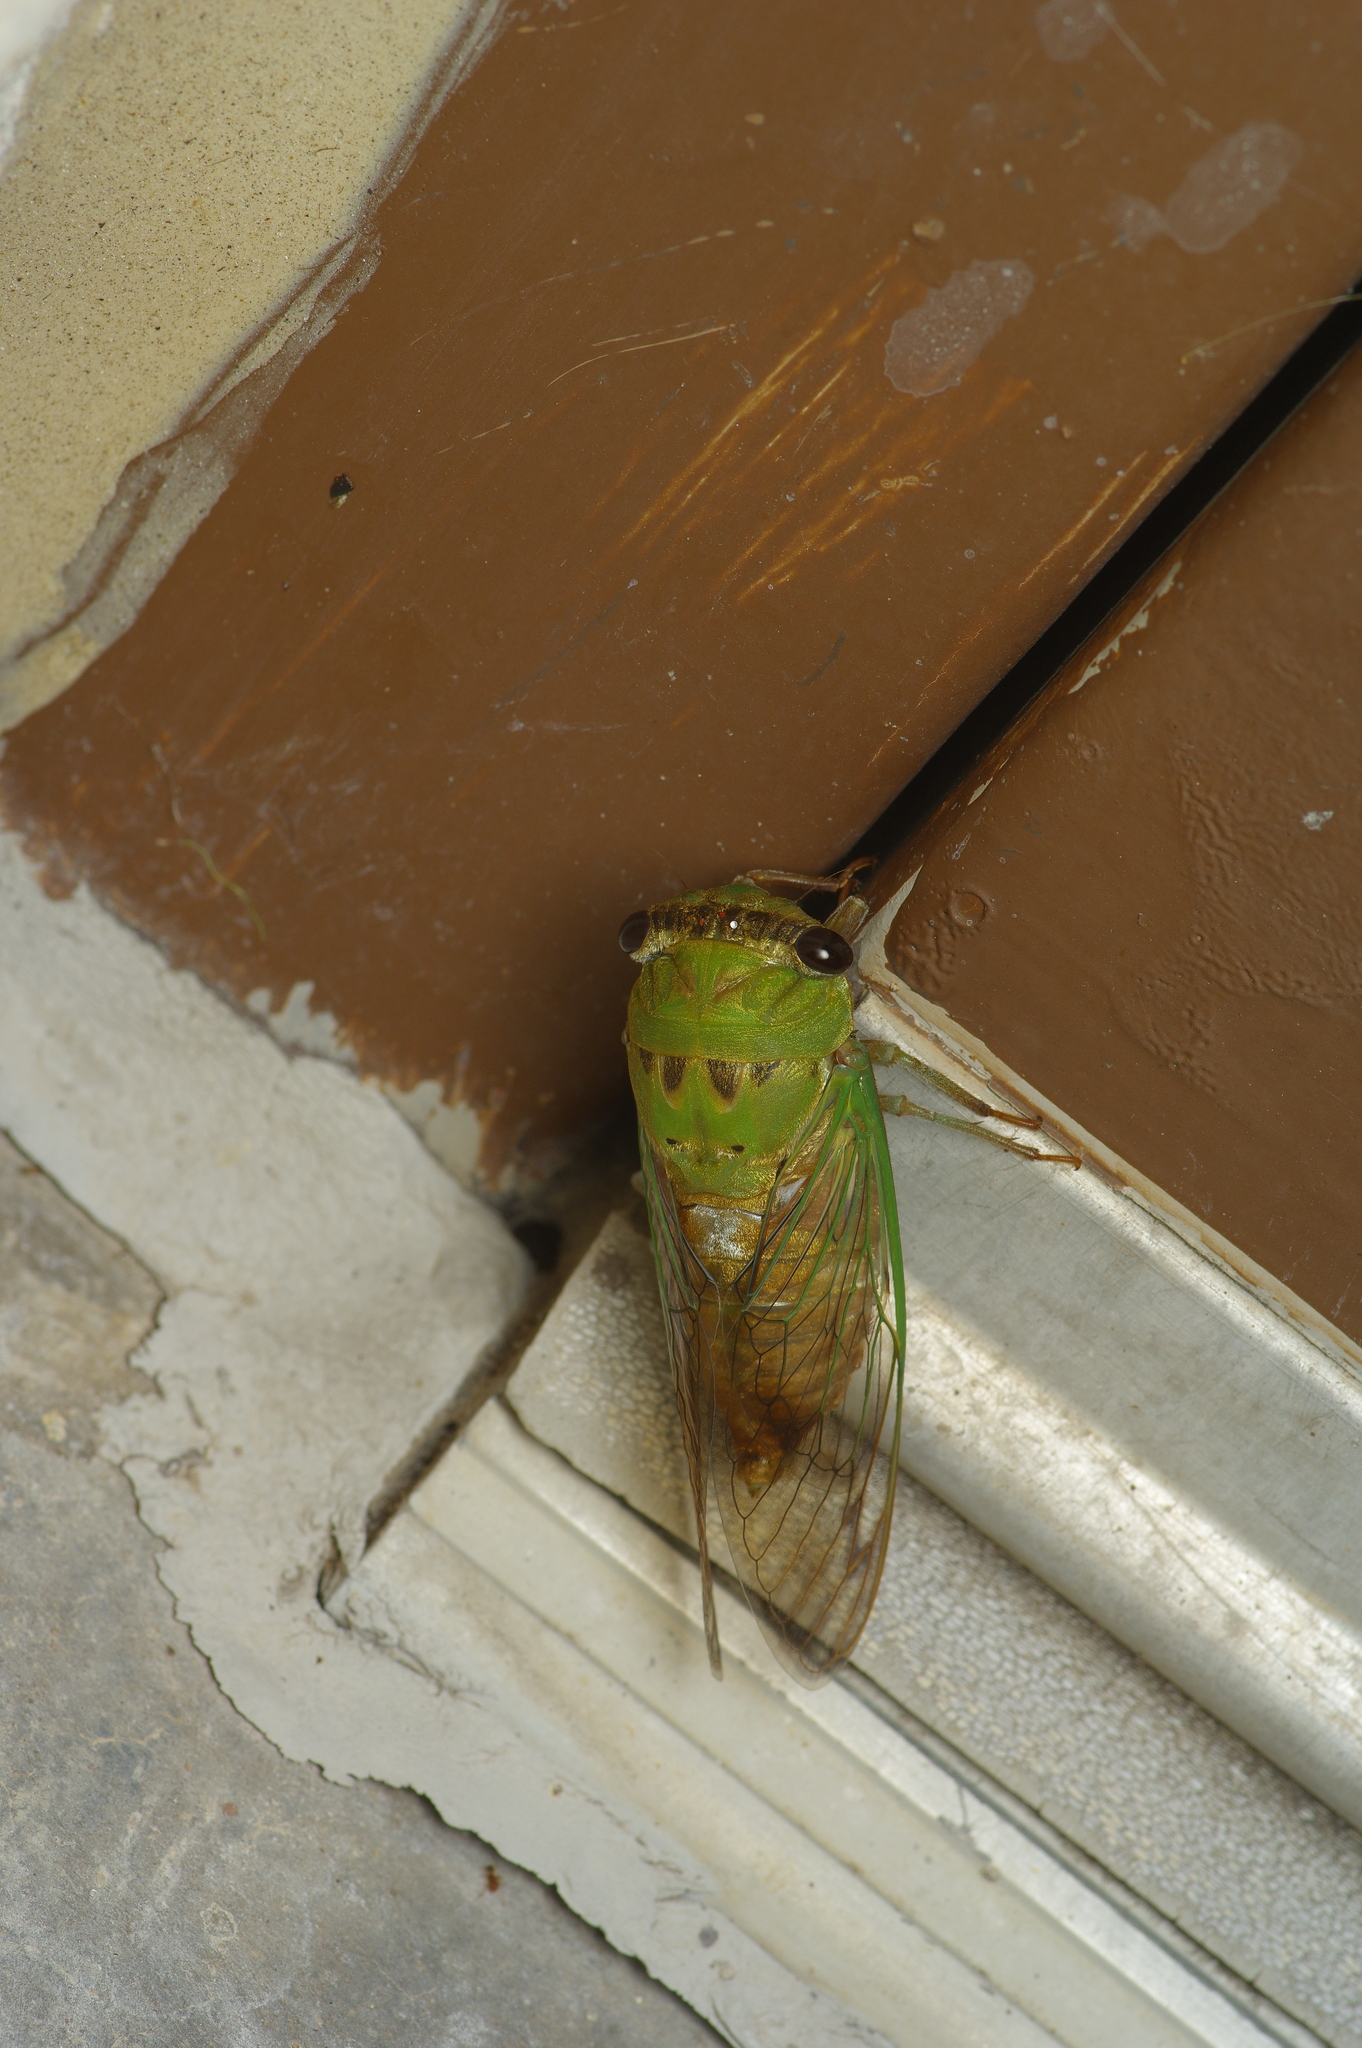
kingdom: Animalia
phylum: Arthropoda
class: Insecta
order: Hemiptera
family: Cicadidae
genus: Neotibicen
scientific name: Neotibicen superbus
